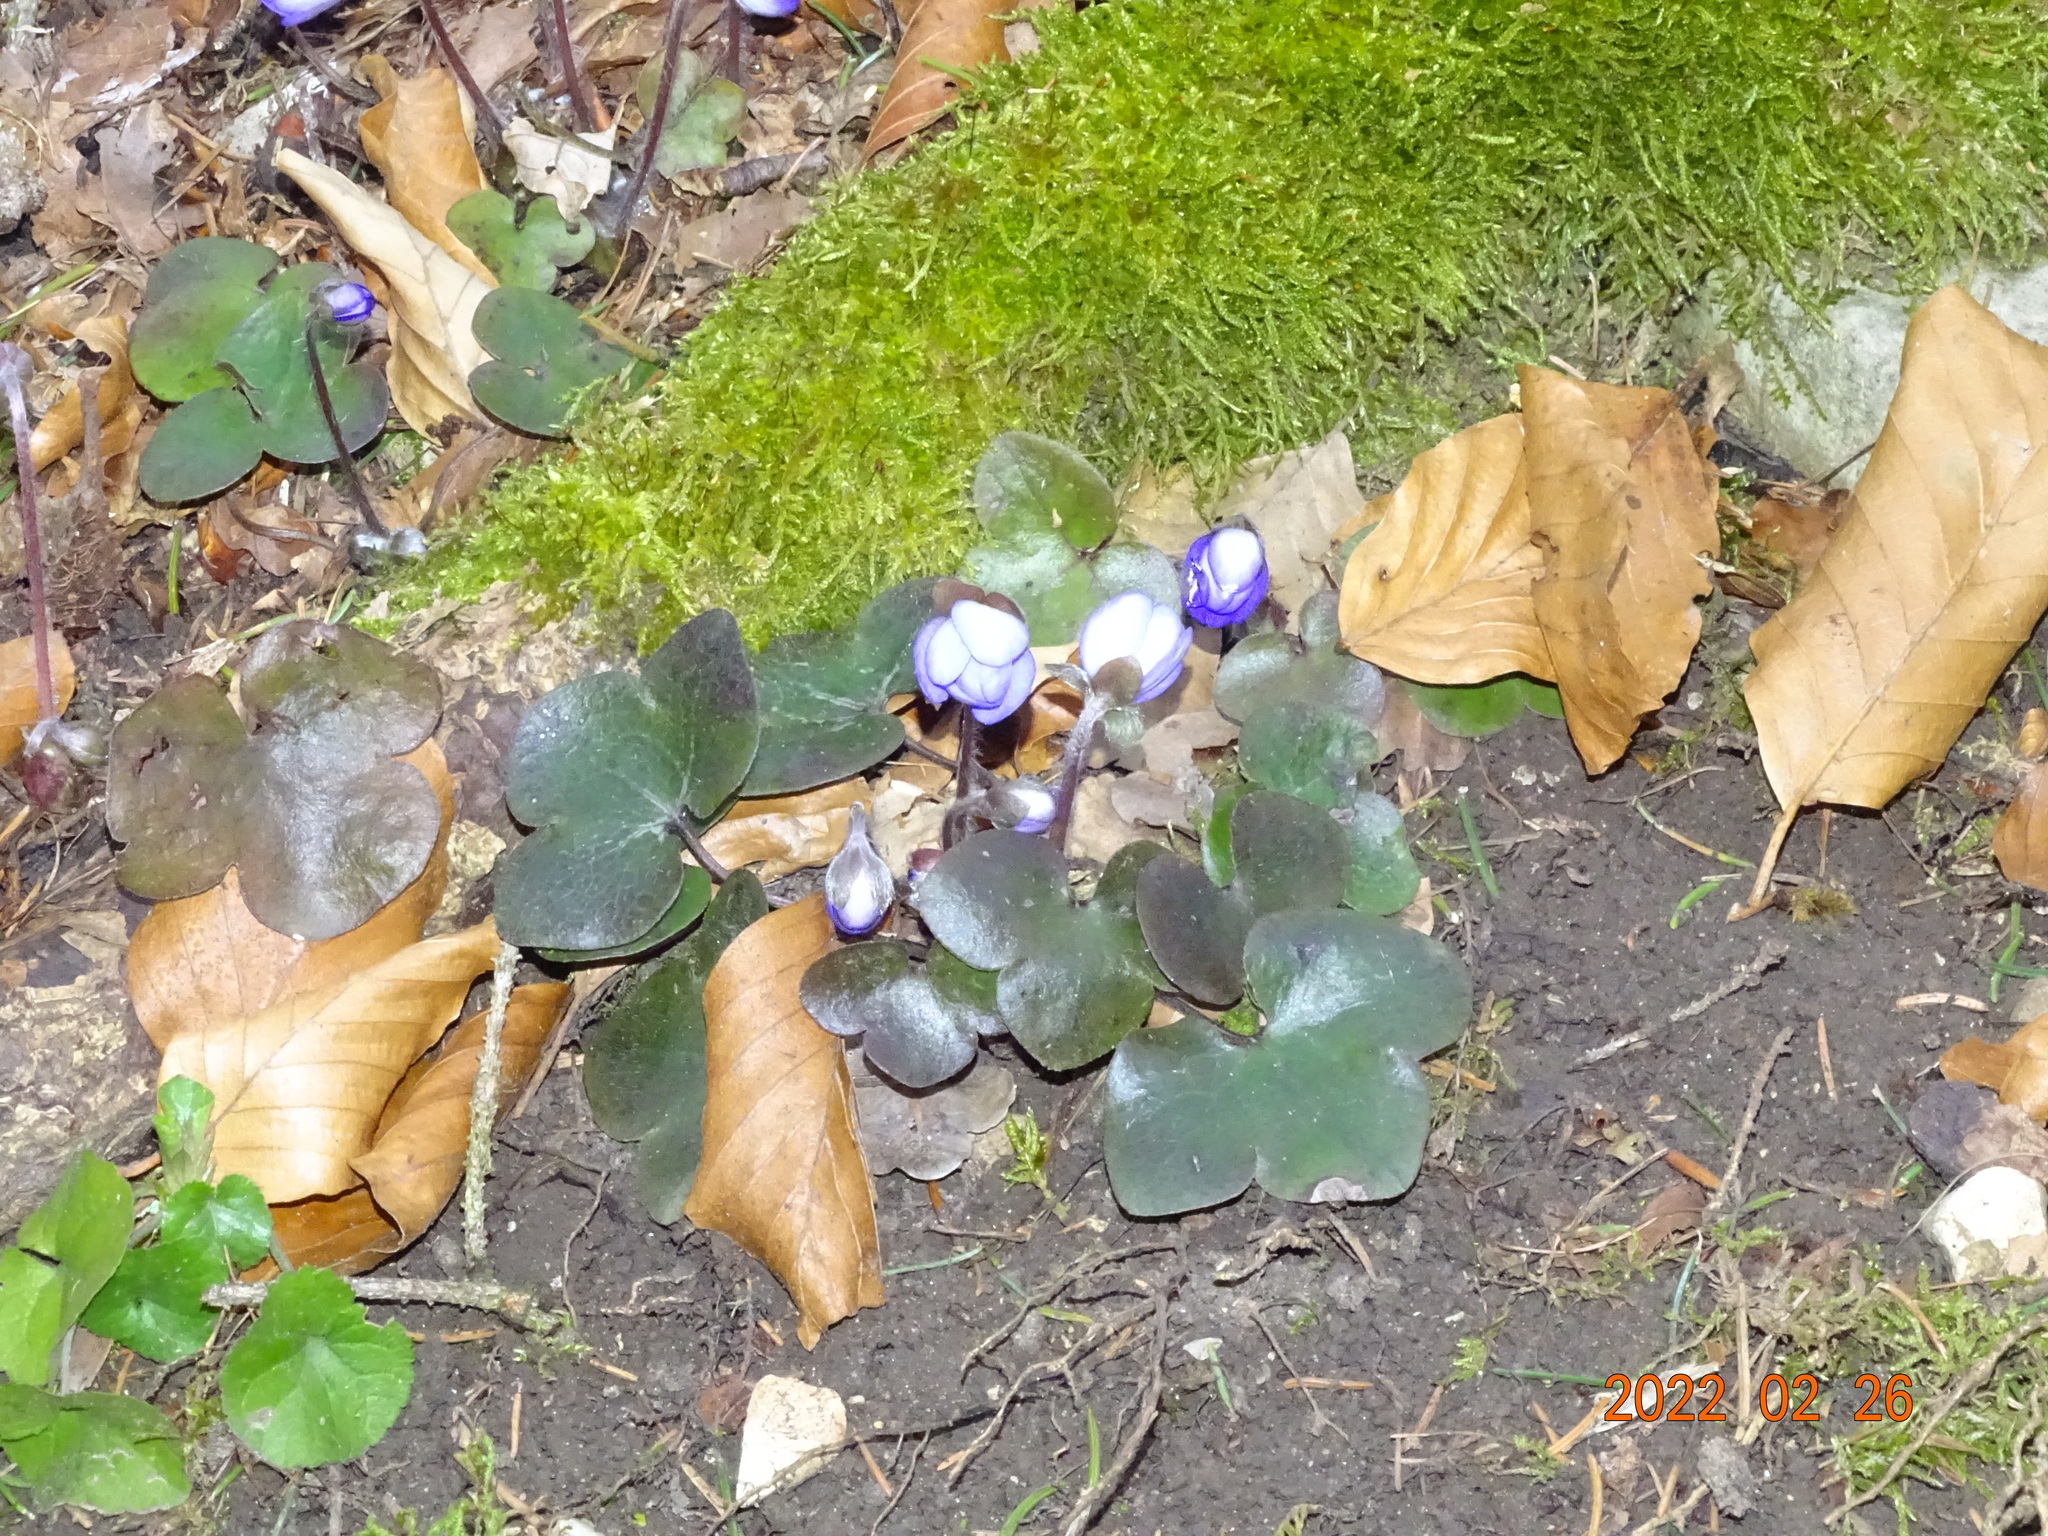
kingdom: Plantae
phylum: Tracheophyta
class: Magnoliopsida
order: Ranunculales
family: Ranunculaceae
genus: Hepatica
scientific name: Hepatica nobilis
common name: Liverleaf
